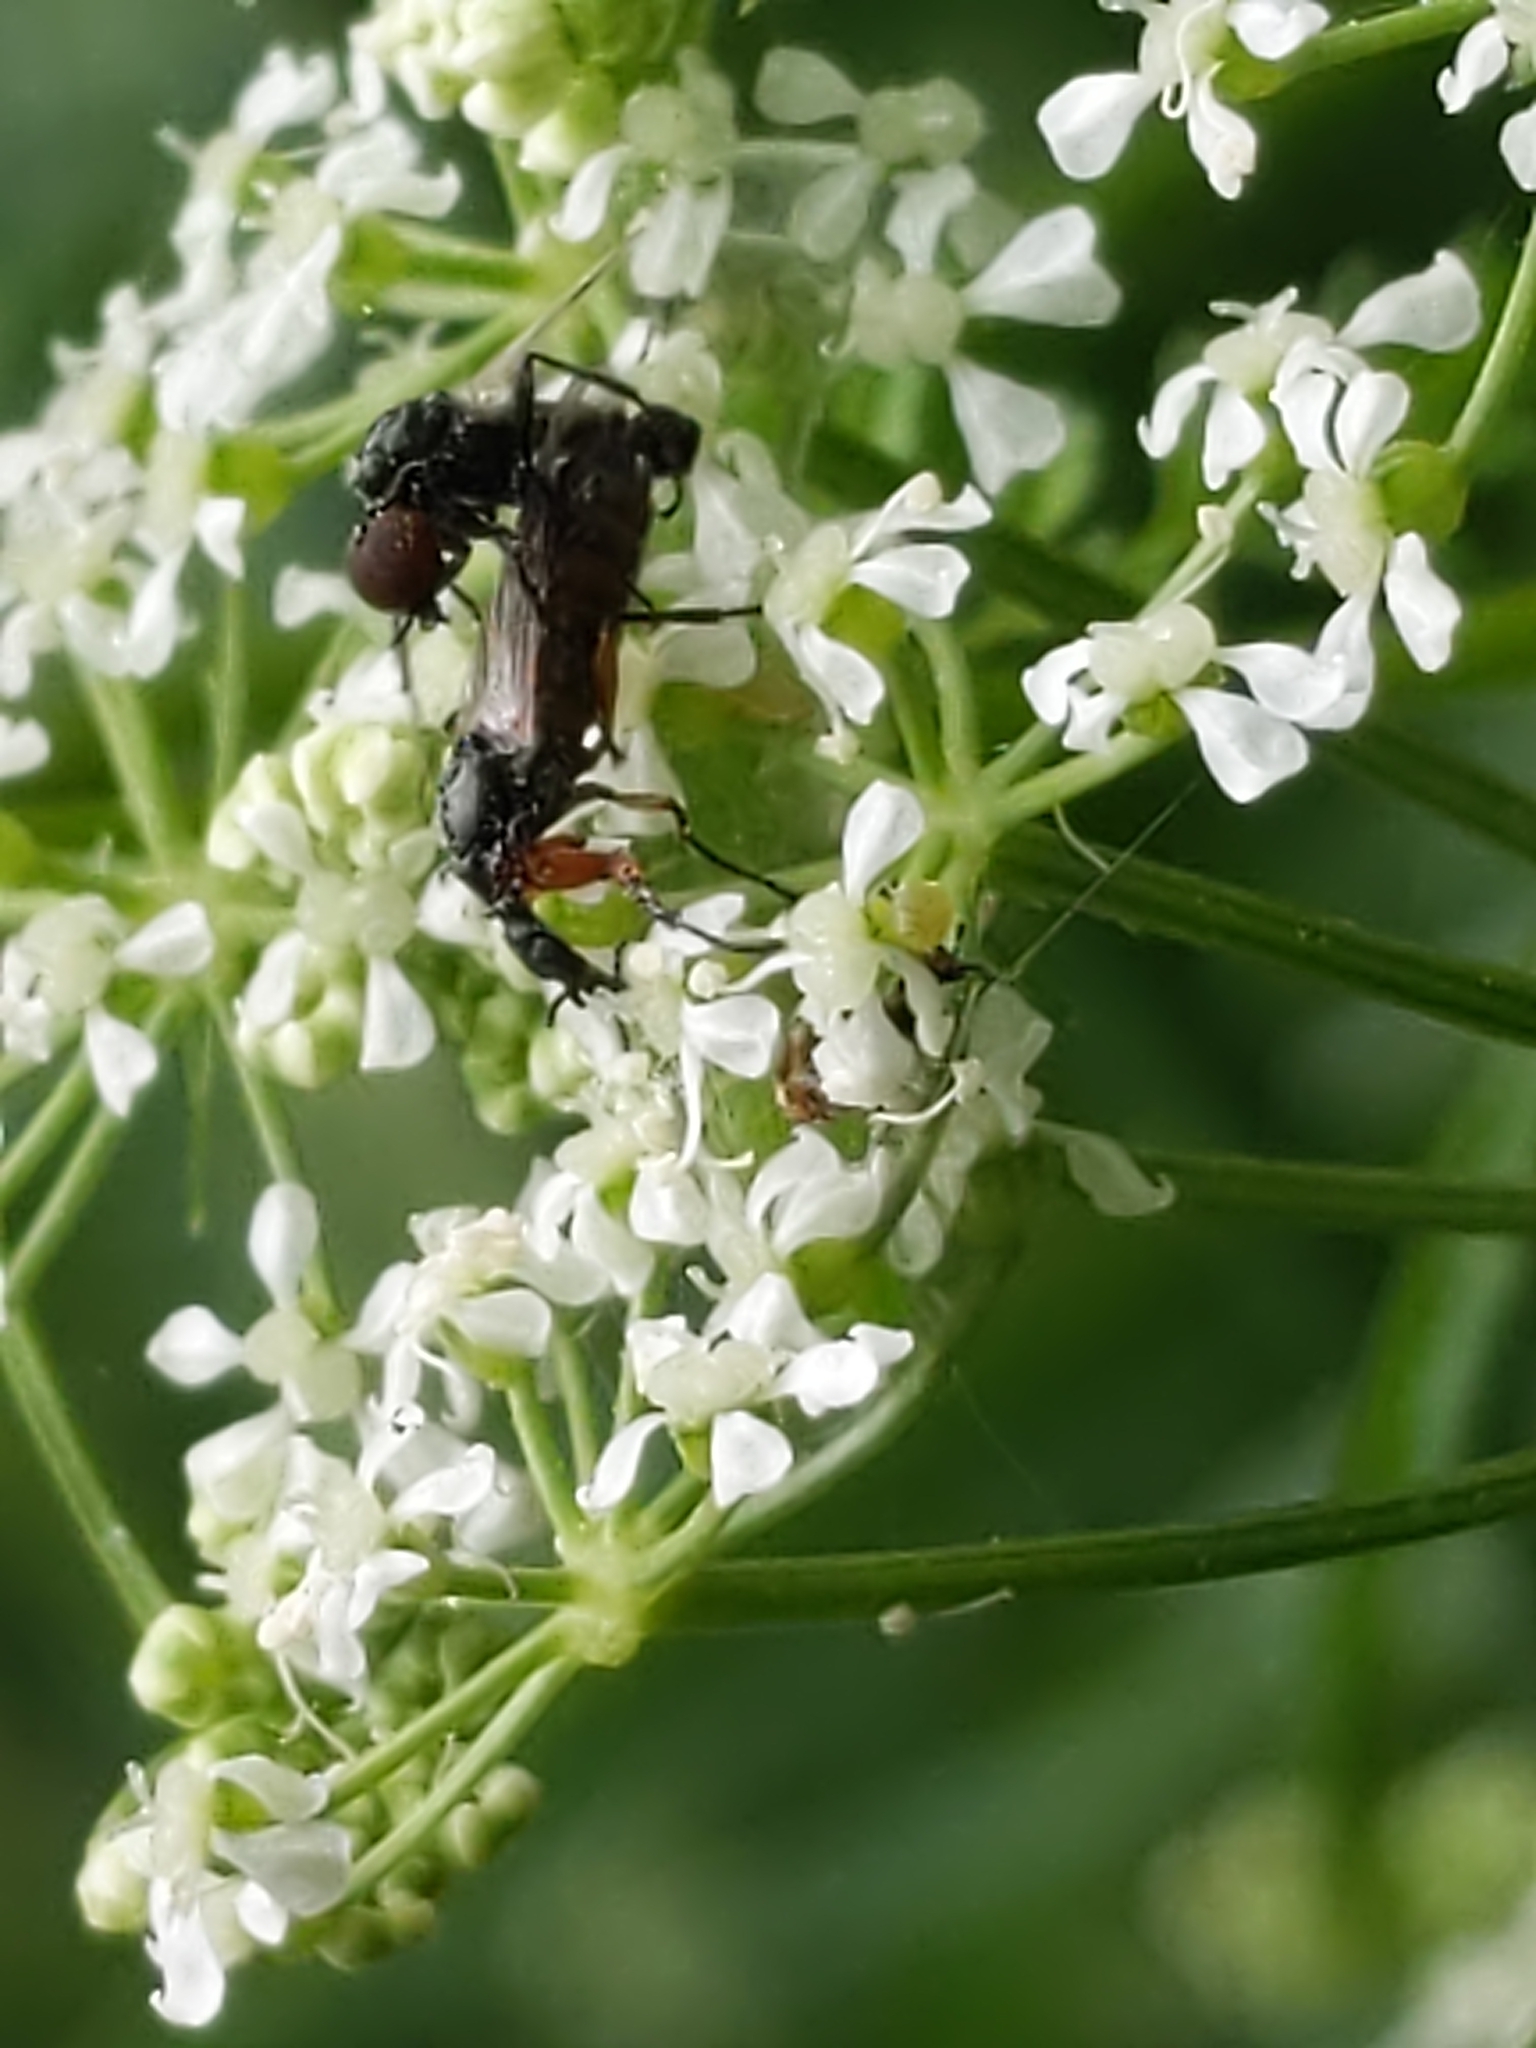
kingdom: Animalia
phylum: Arthropoda
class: Insecta
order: Diptera
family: Bibionidae
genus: Dilophus
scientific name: Dilophus
